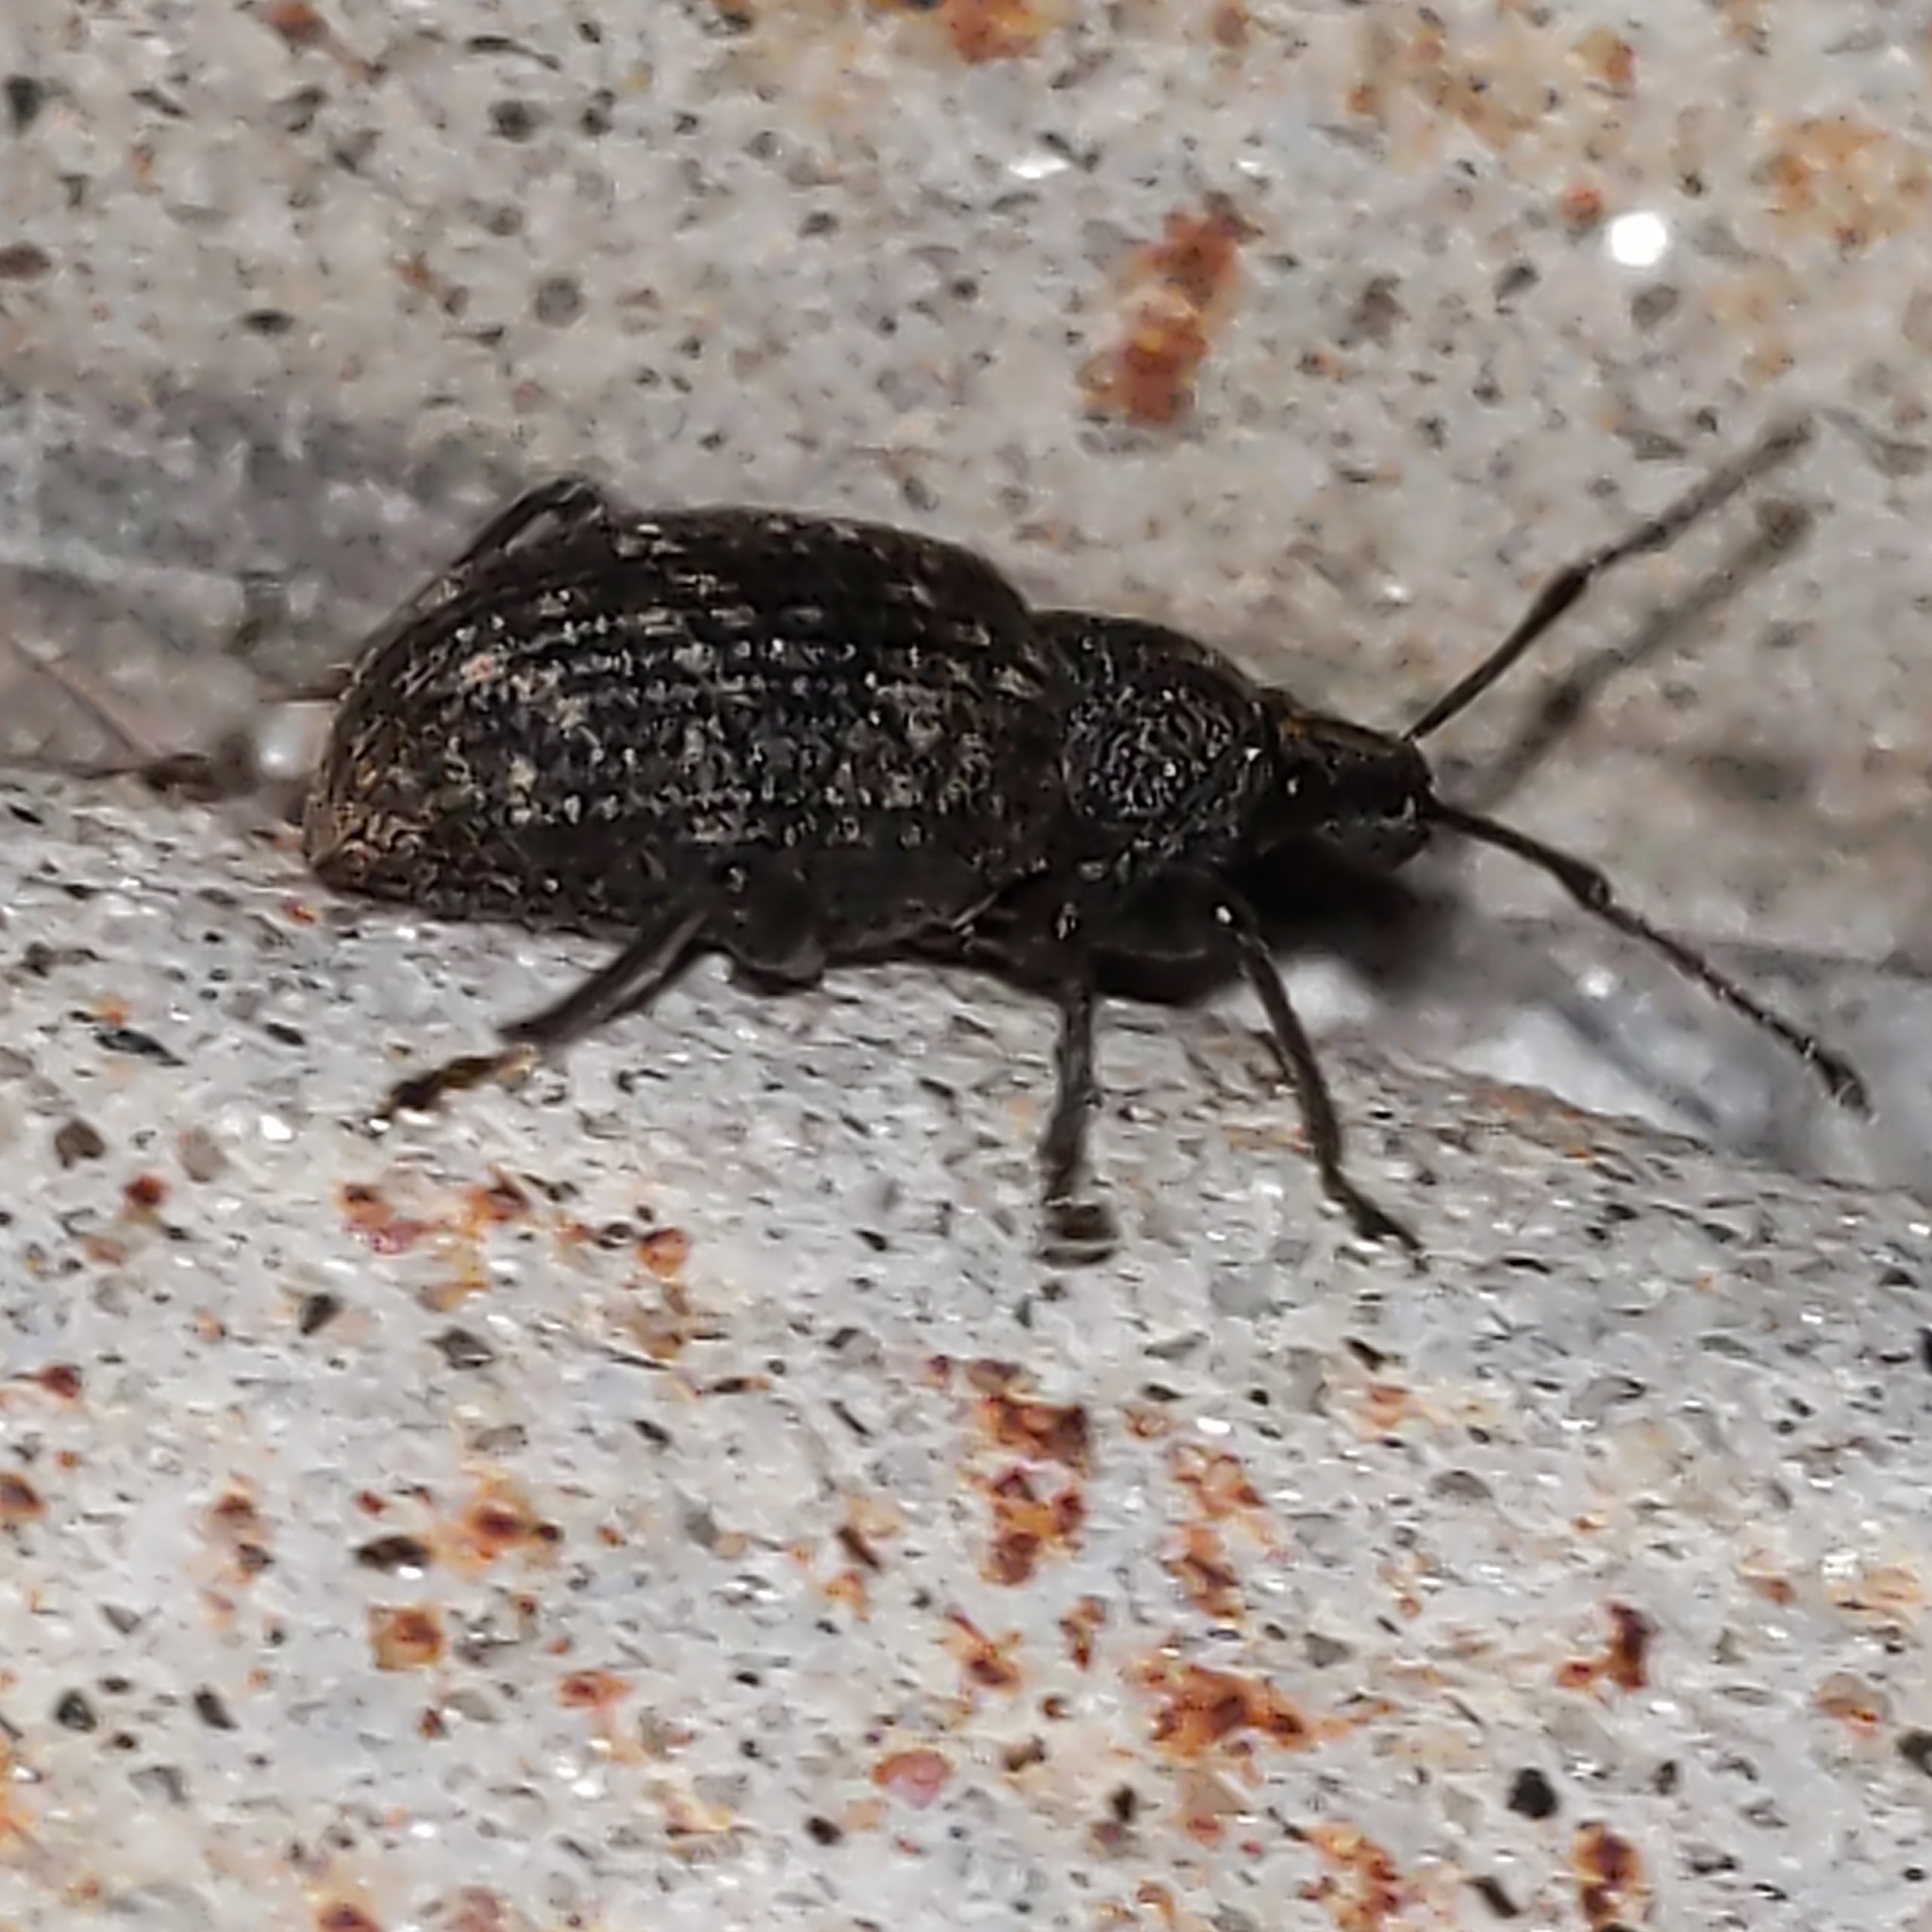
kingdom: Animalia
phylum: Arthropoda
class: Insecta
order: Coleoptera
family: Curculionidae
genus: Otiorhynchus
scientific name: Otiorhynchus sulcatus
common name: Black vine weevil
